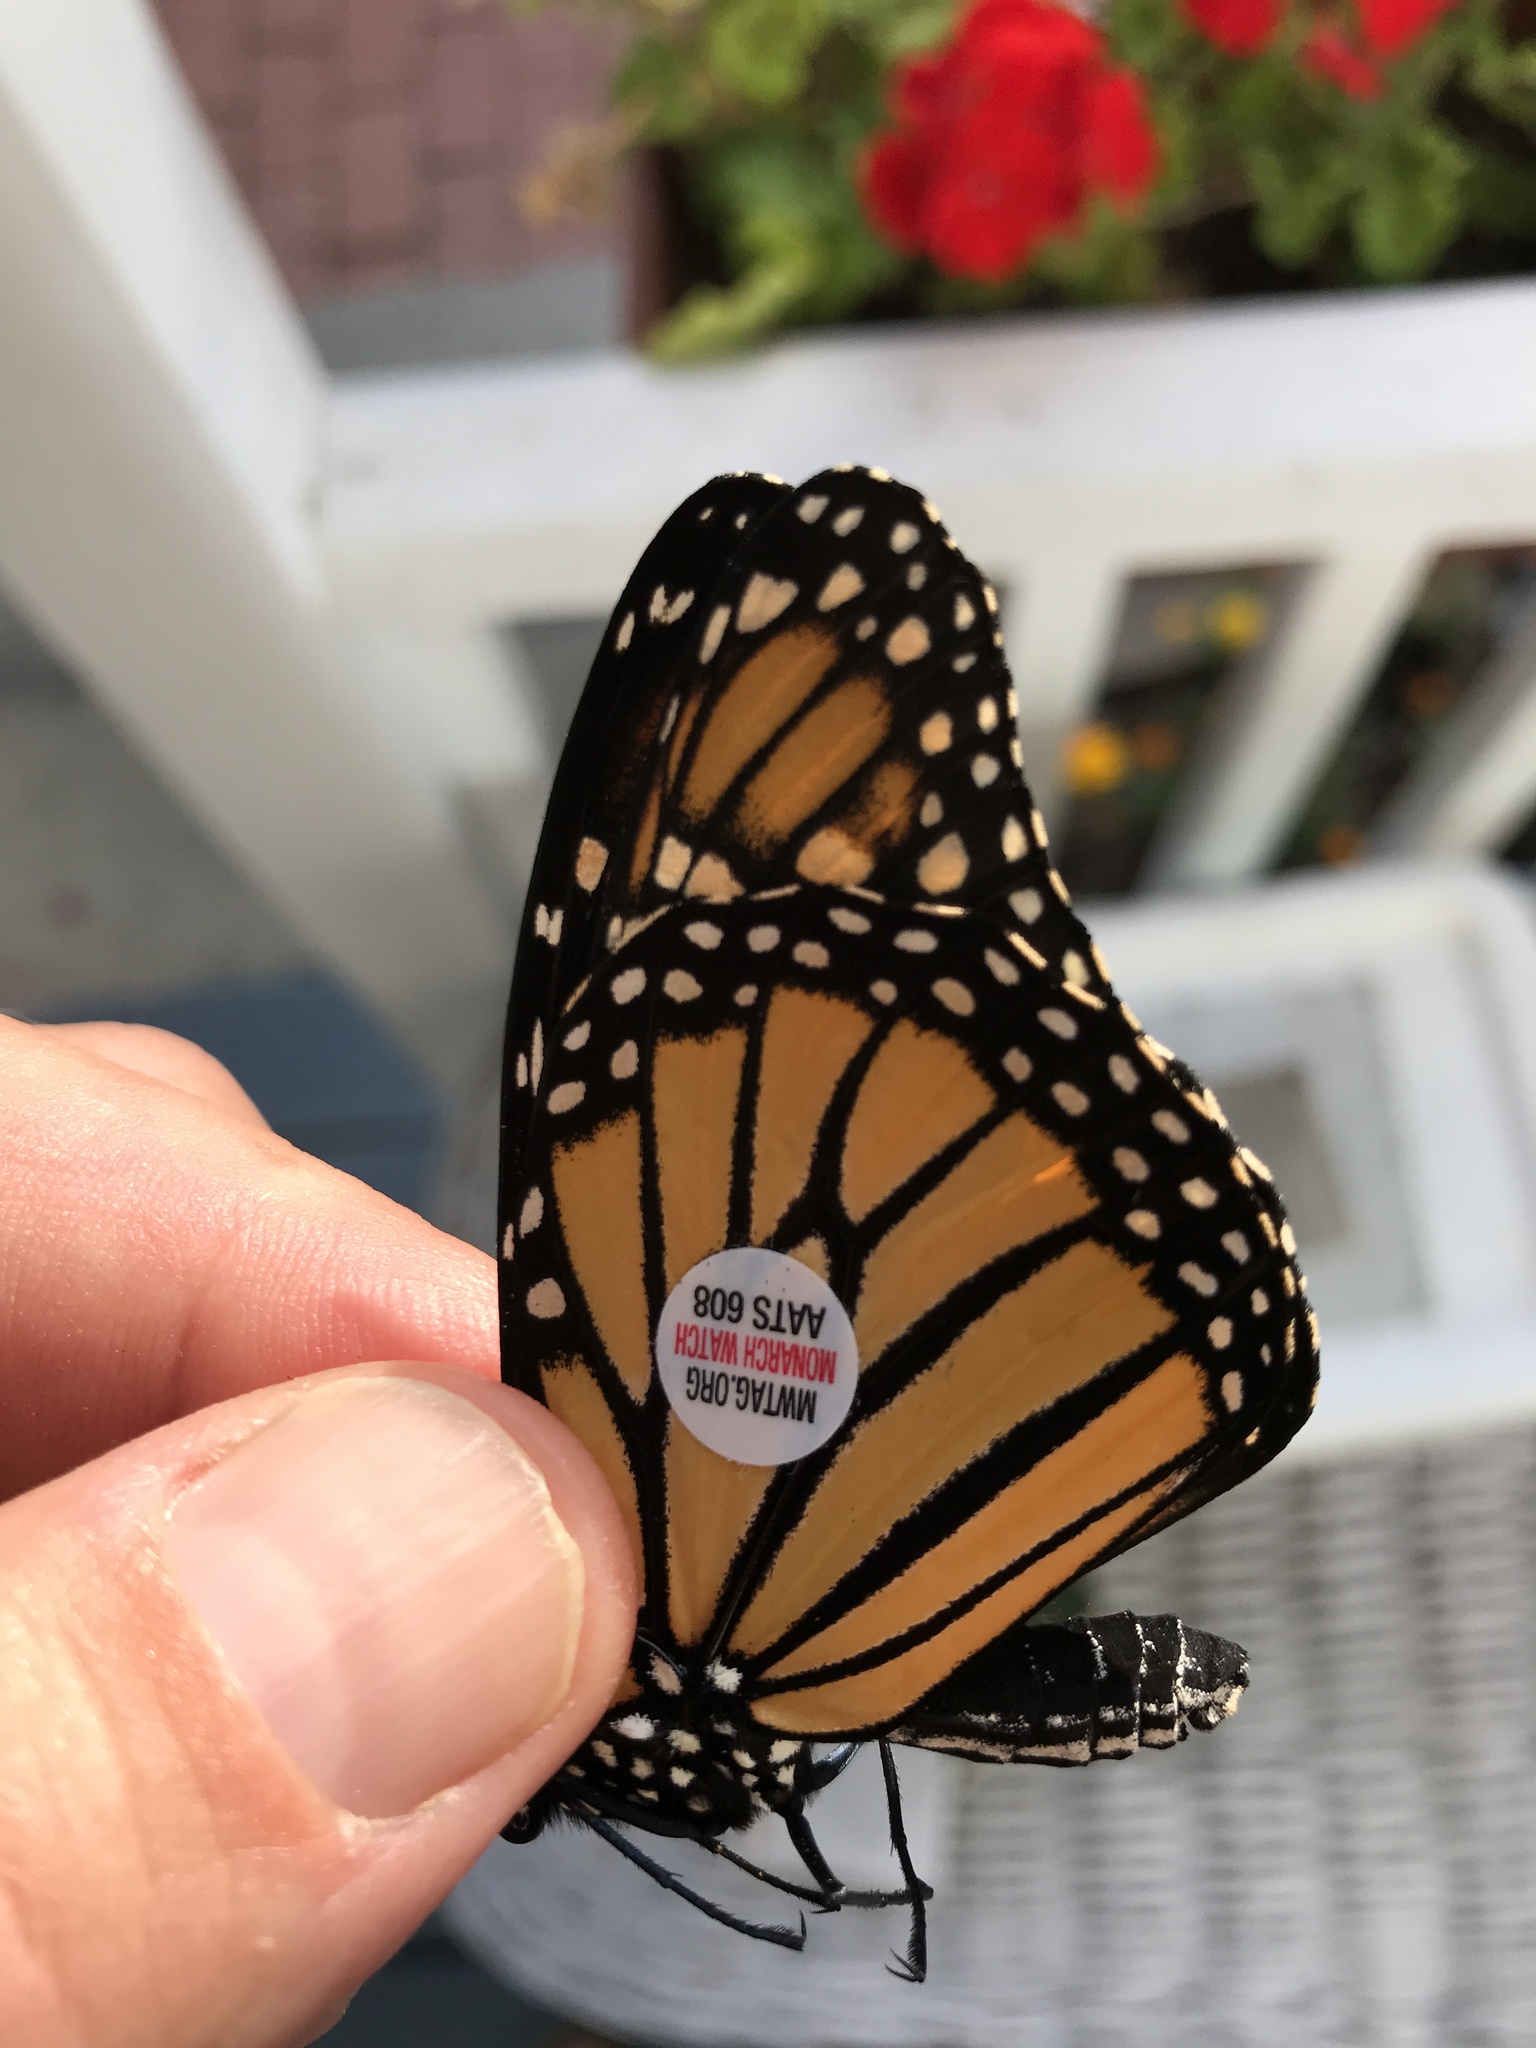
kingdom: Animalia
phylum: Arthropoda
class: Insecta
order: Lepidoptera
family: Nymphalidae
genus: Danaus
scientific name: Danaus plexippus
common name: Monarch
